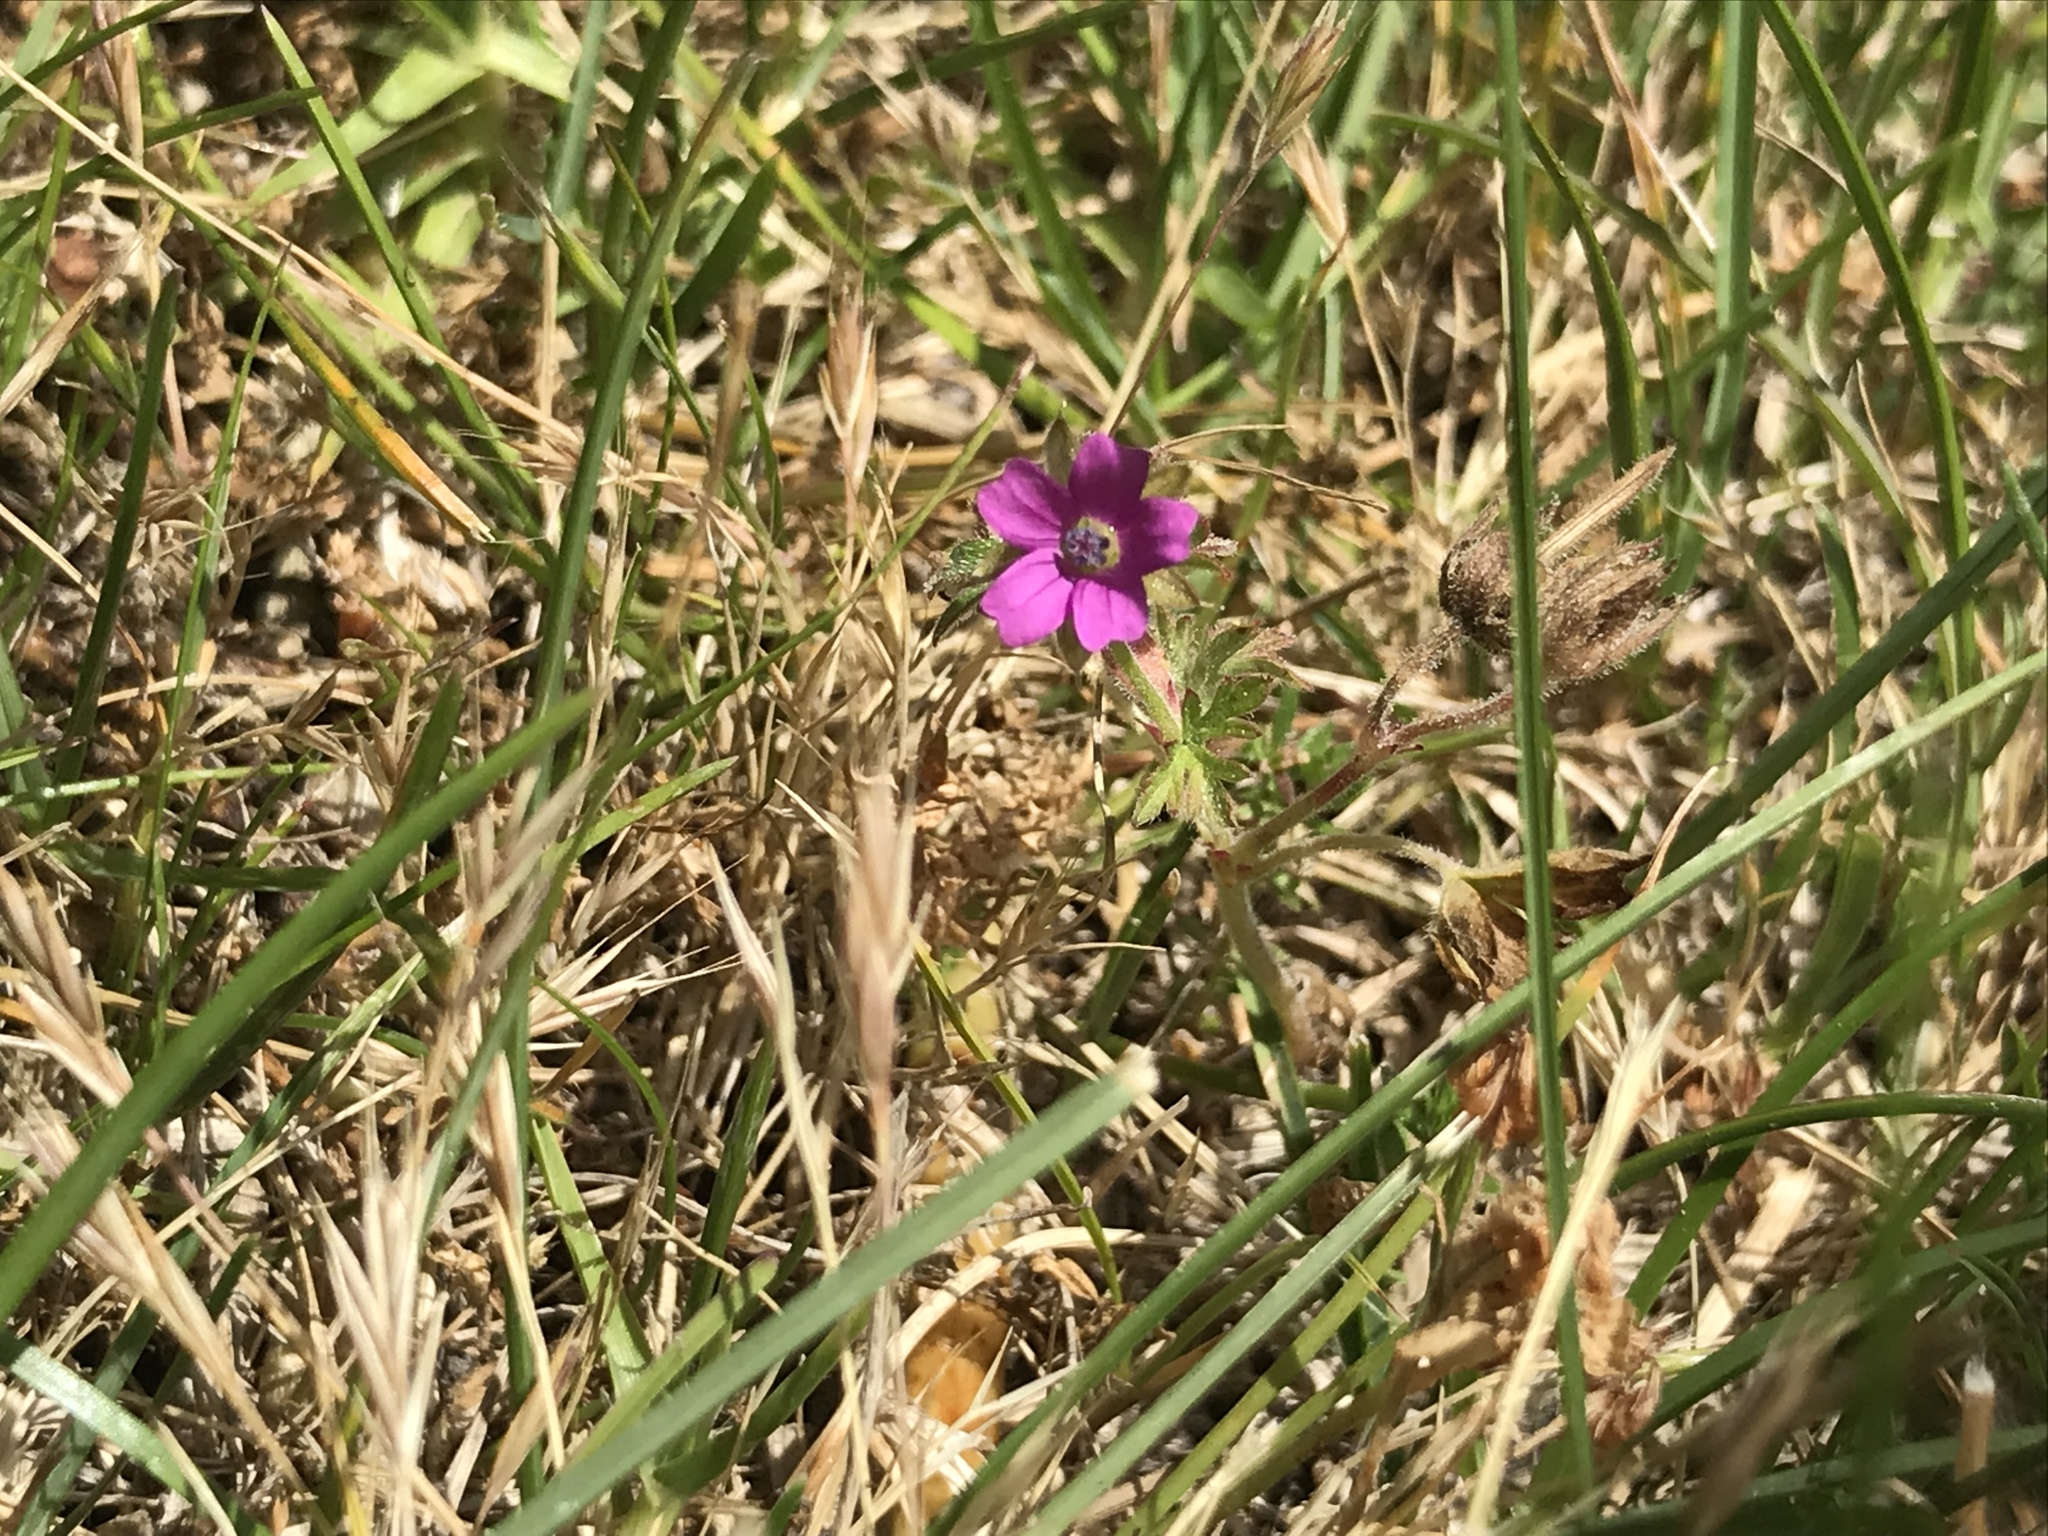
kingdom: Plantae
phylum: Tracheophyta
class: Magnoliopsida
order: Geraniales
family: Geraniaceae
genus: Geranium
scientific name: Geranium dissectum
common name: Cut-leaved crane's-bill
